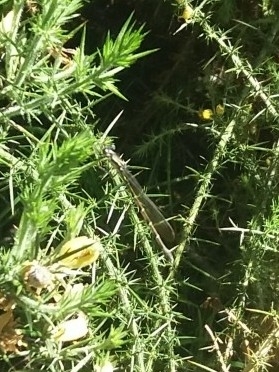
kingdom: Animalia
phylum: Arthropoda
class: Insecta
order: Odonata
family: Lestidae
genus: Austrolestes
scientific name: Austrolestes colensonis
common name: Blue damselfly
